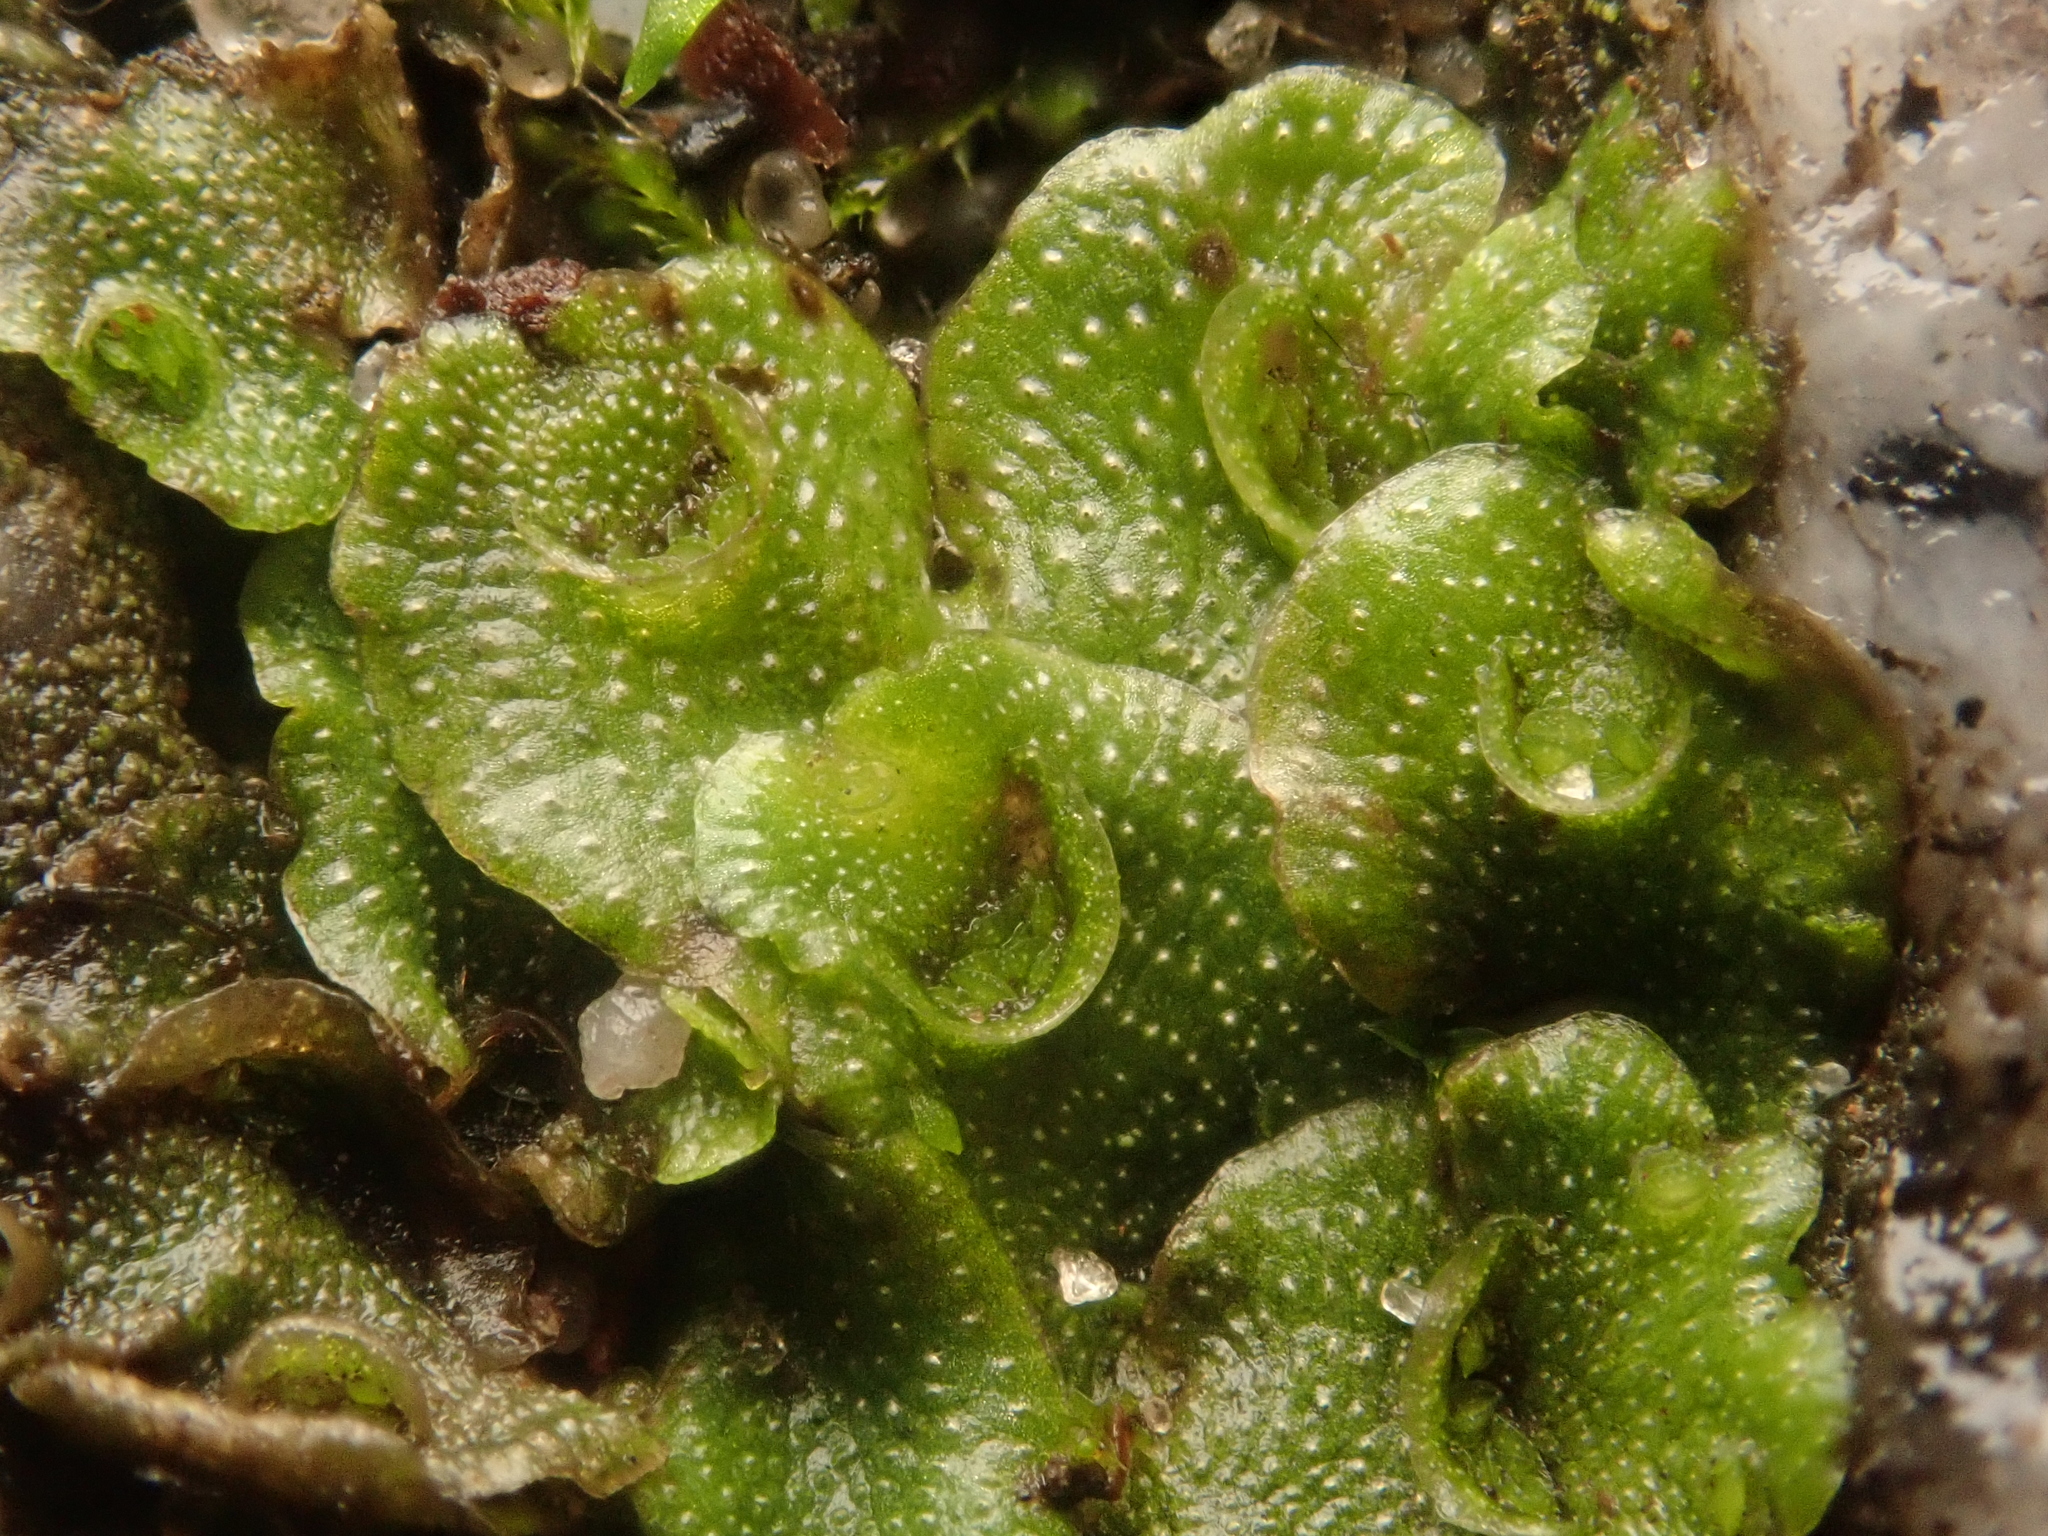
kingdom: Plantae
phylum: Marchantiophyta
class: Marchantiopsida
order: Lunulariales
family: Lunulariaceae
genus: Lunularia
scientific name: Lunularia cruciata
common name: Crescent-cup liverwort
